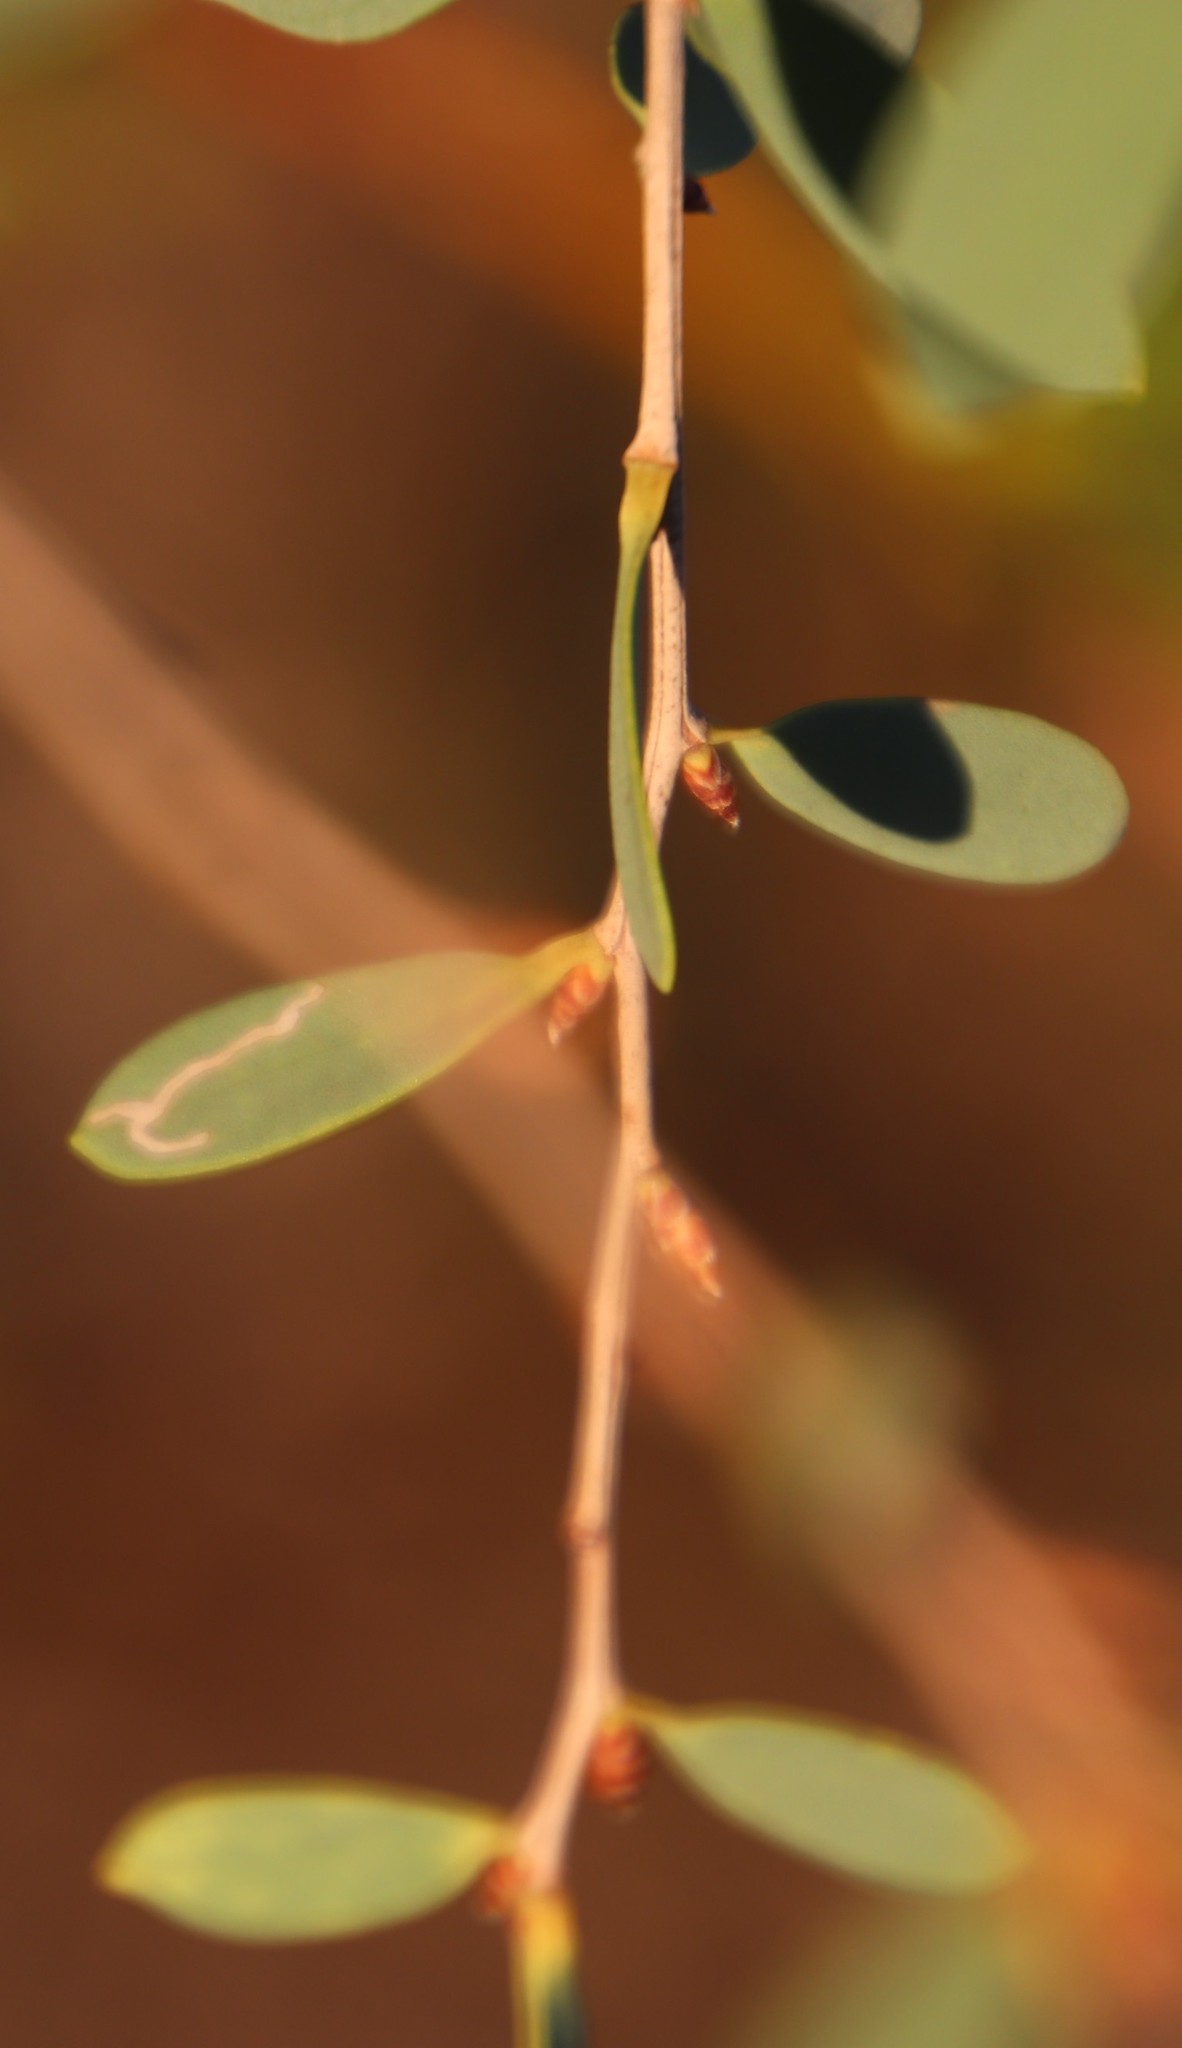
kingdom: Animalia
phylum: Arthropoda
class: Insecta
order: Lepidoptera
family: Gracillariidae
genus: Aristaea
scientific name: Aristaea thalassias
